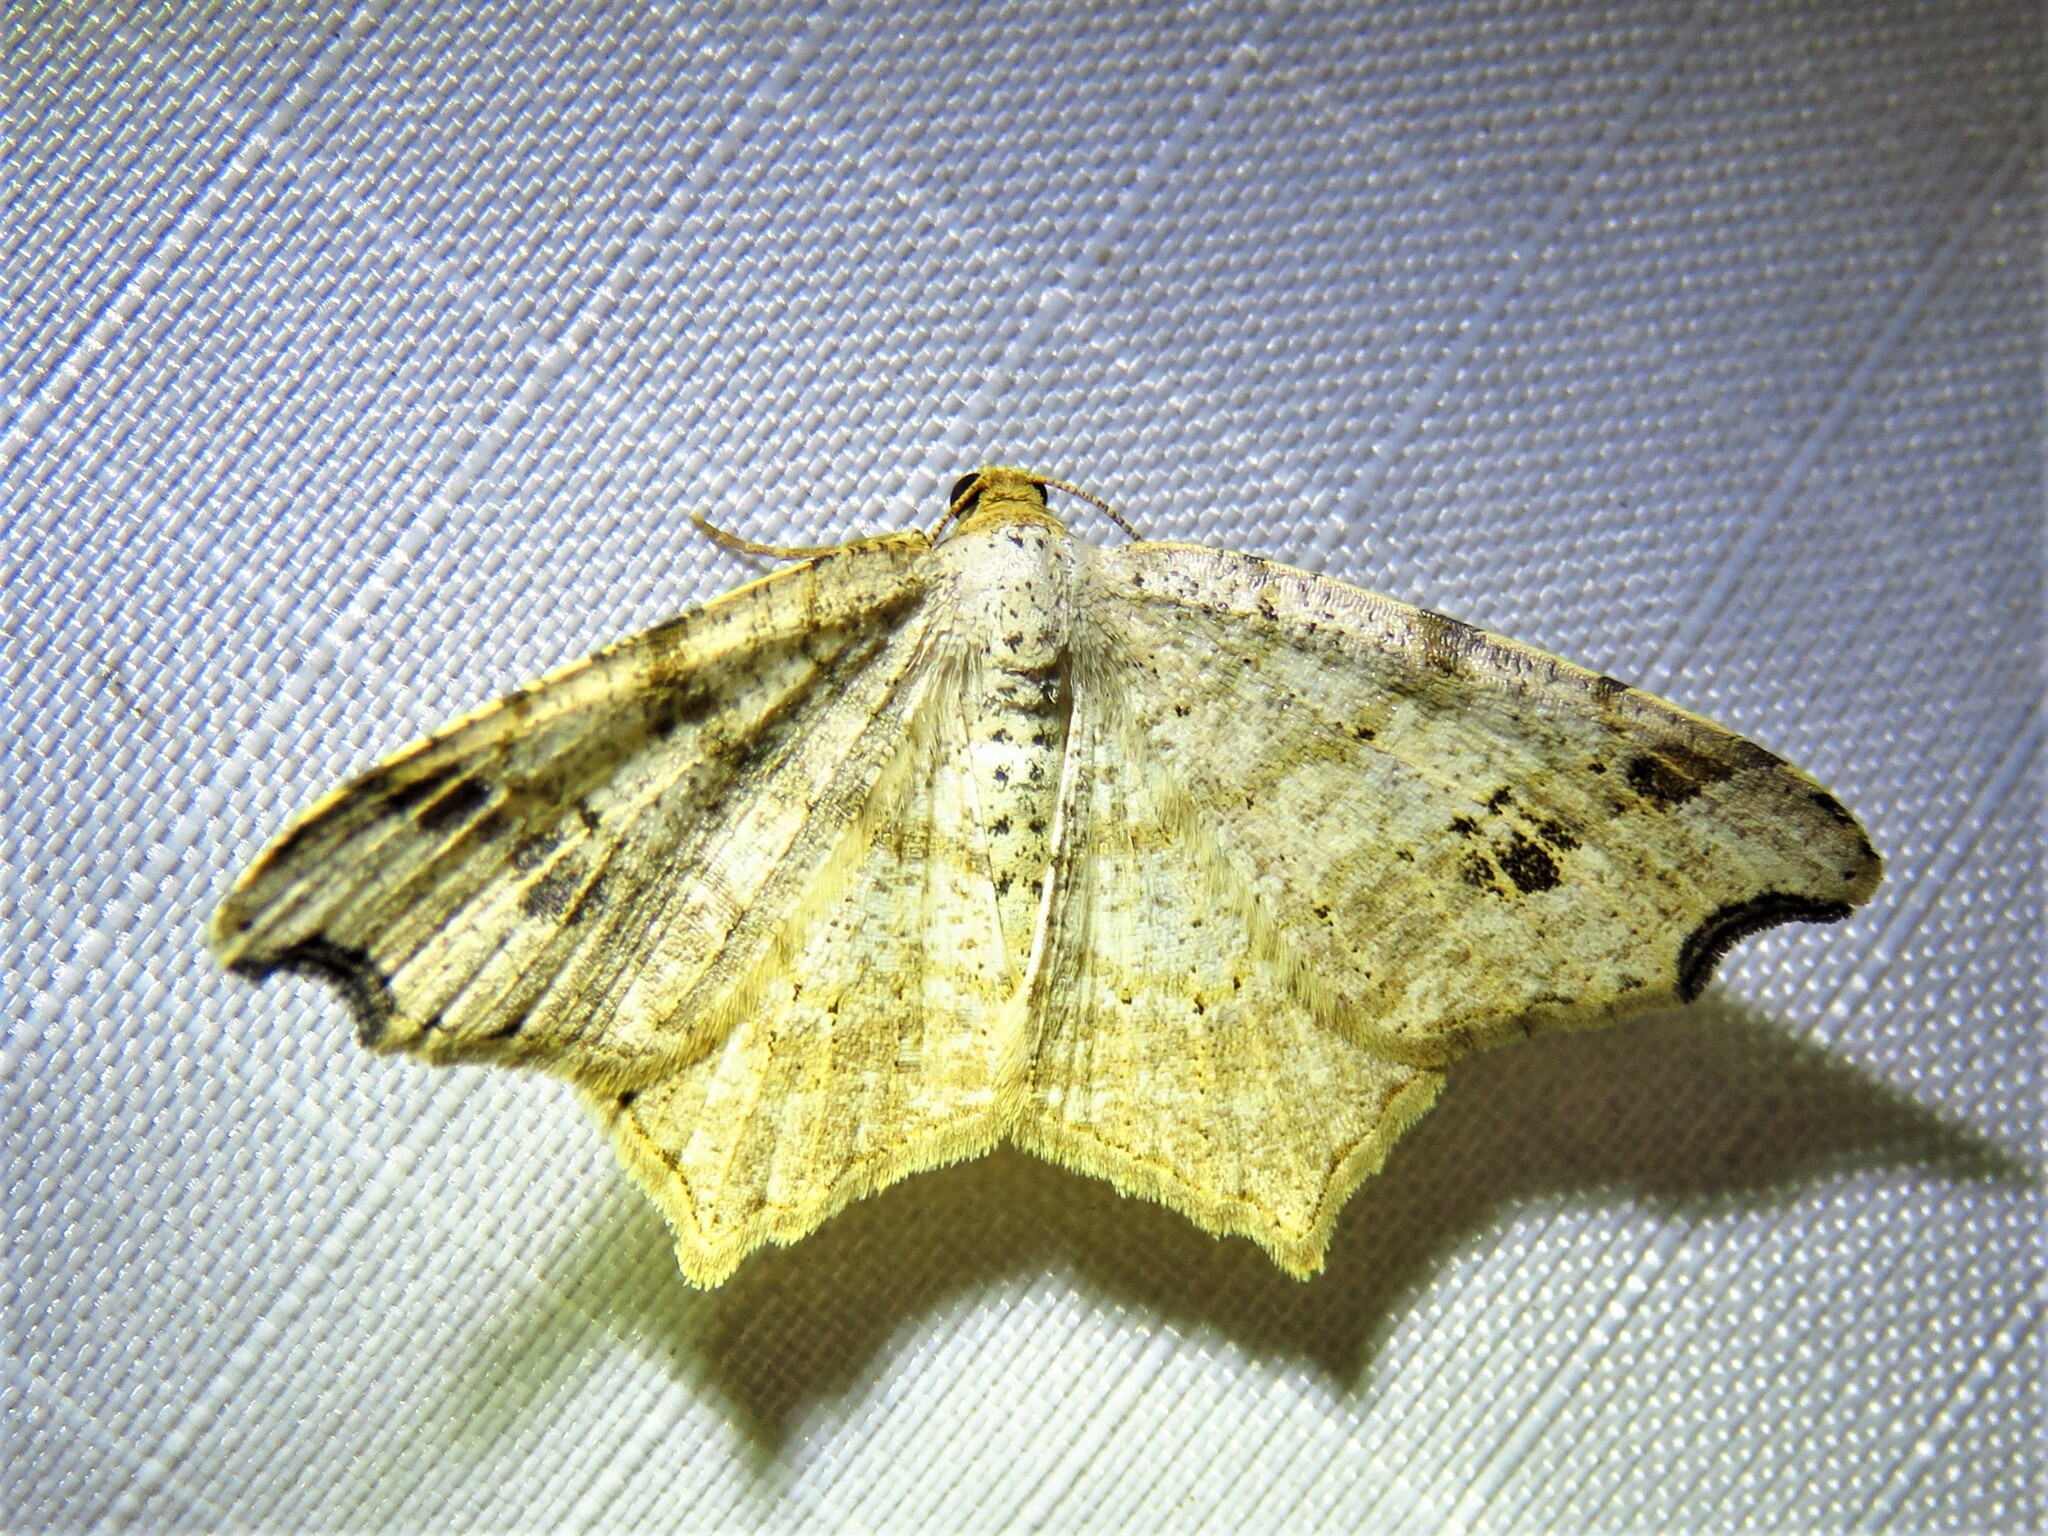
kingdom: Animalia
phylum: Arthropoda
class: Insecta
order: Lepidoptera
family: Geometridae
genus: Macaria
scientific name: Macaria aemulataria
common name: Common angle
